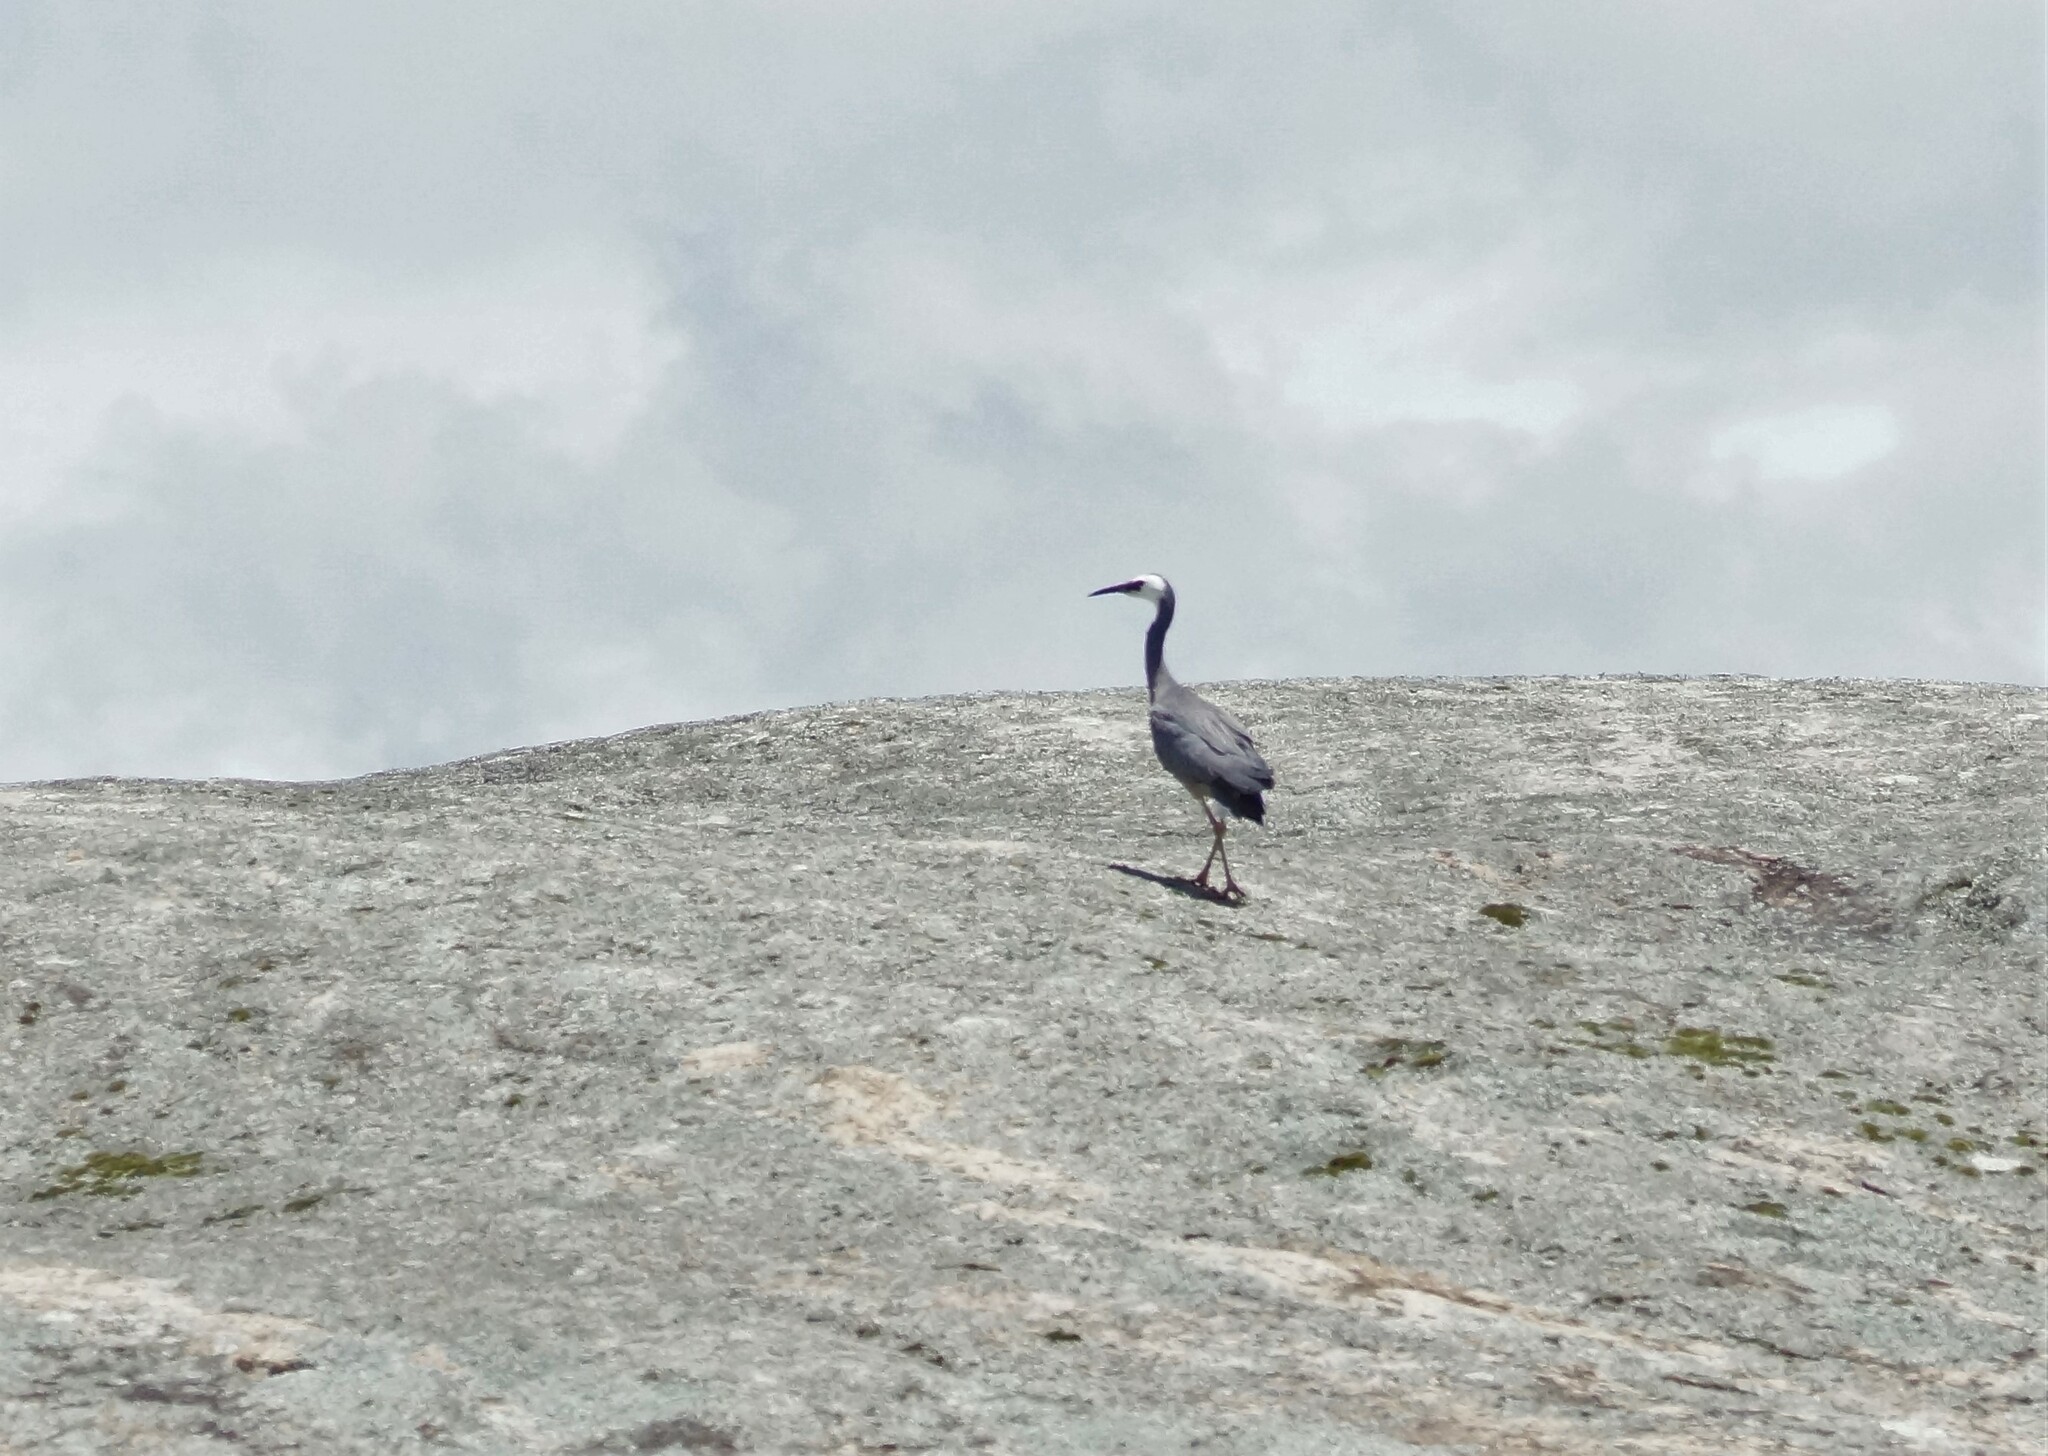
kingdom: Animalia
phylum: Chordata
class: Aves
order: Pelecaniformes
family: Ardeidae
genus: Egretta
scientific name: Egretta novaehollandiae
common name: White-faced heron
